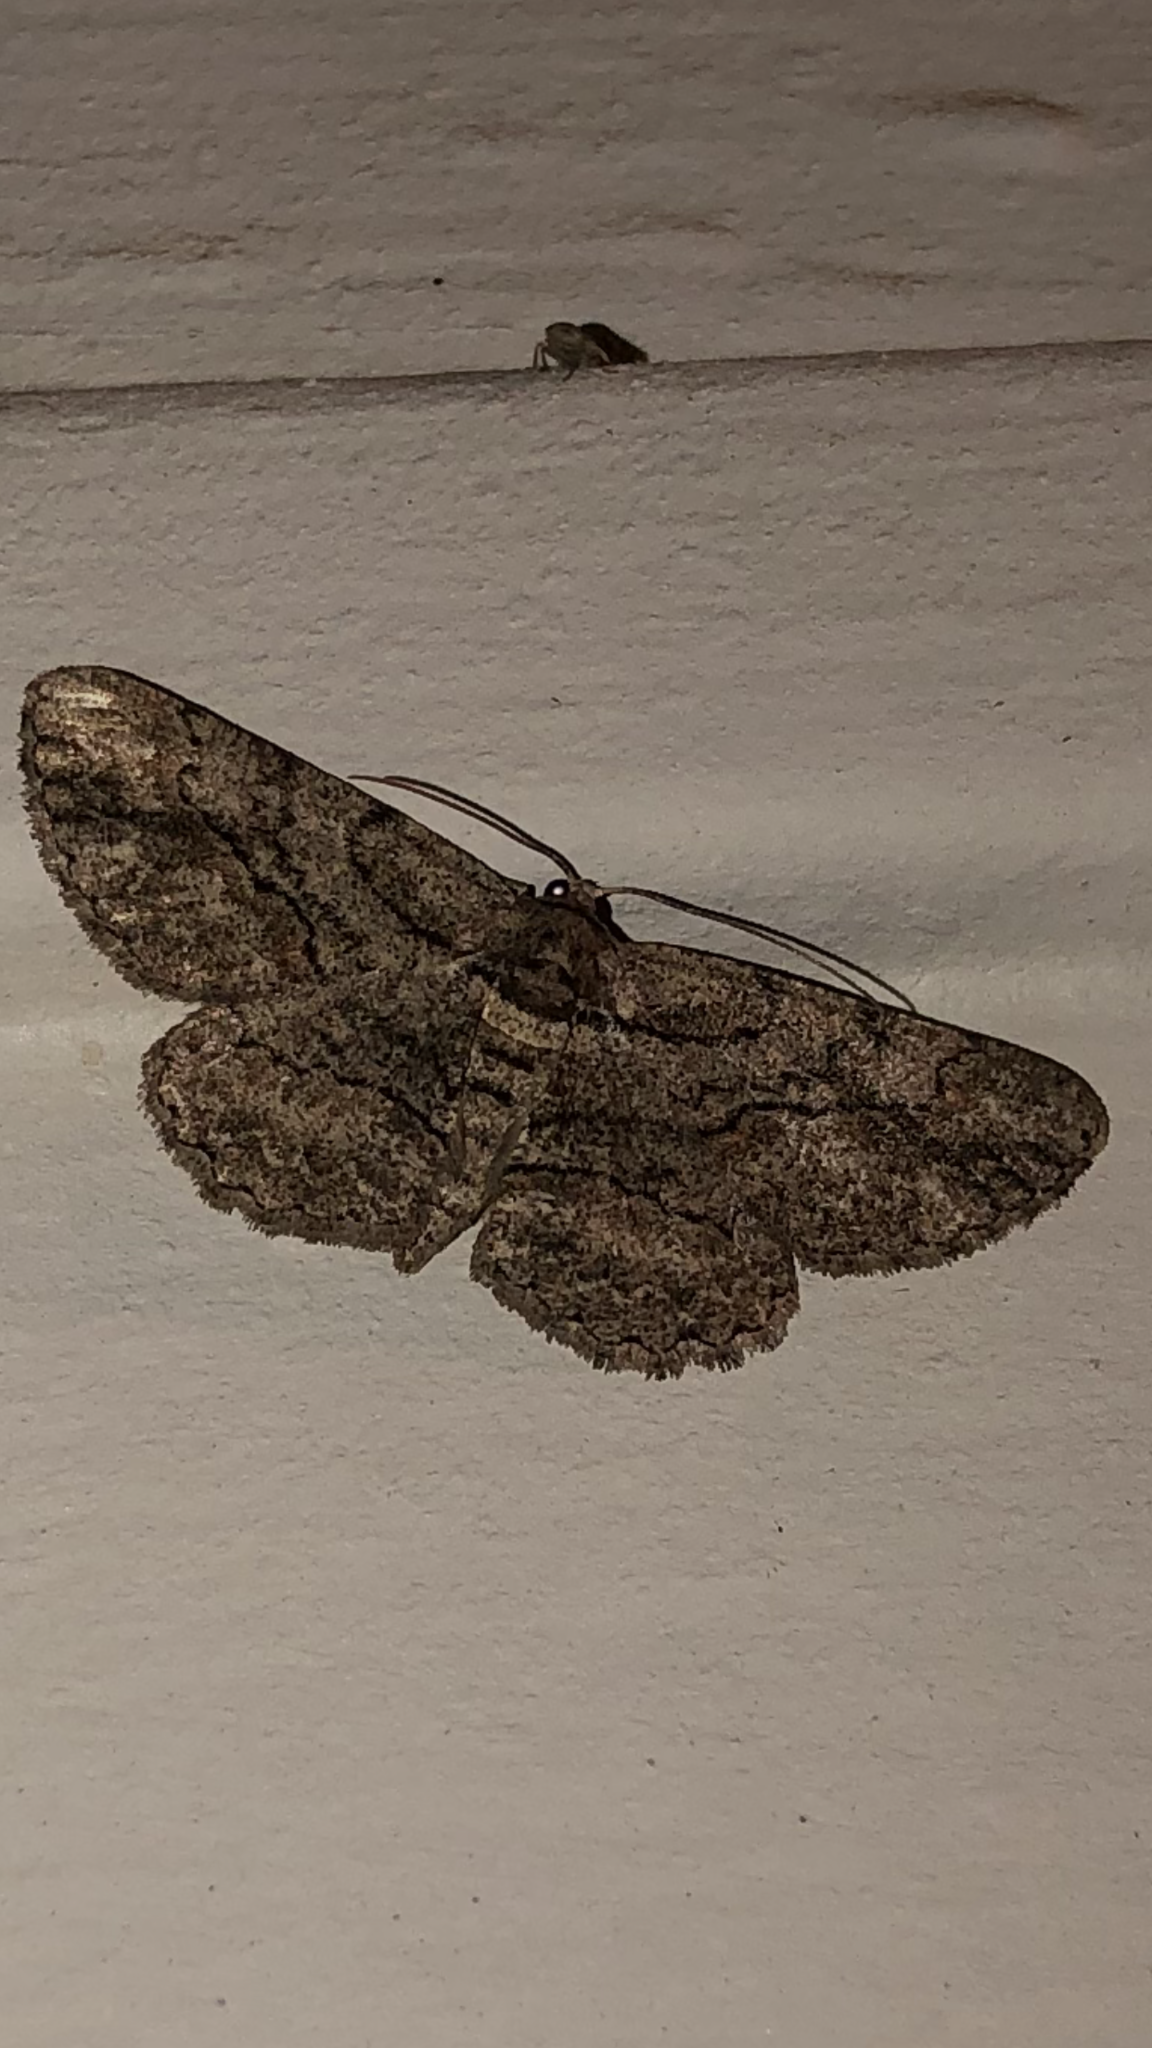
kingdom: Animalia
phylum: Arthropoda
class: Insecta
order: Lepidoptera
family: Geometridae
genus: Anavitrinella
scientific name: Anavitrinella pampinaria
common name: Common gray
